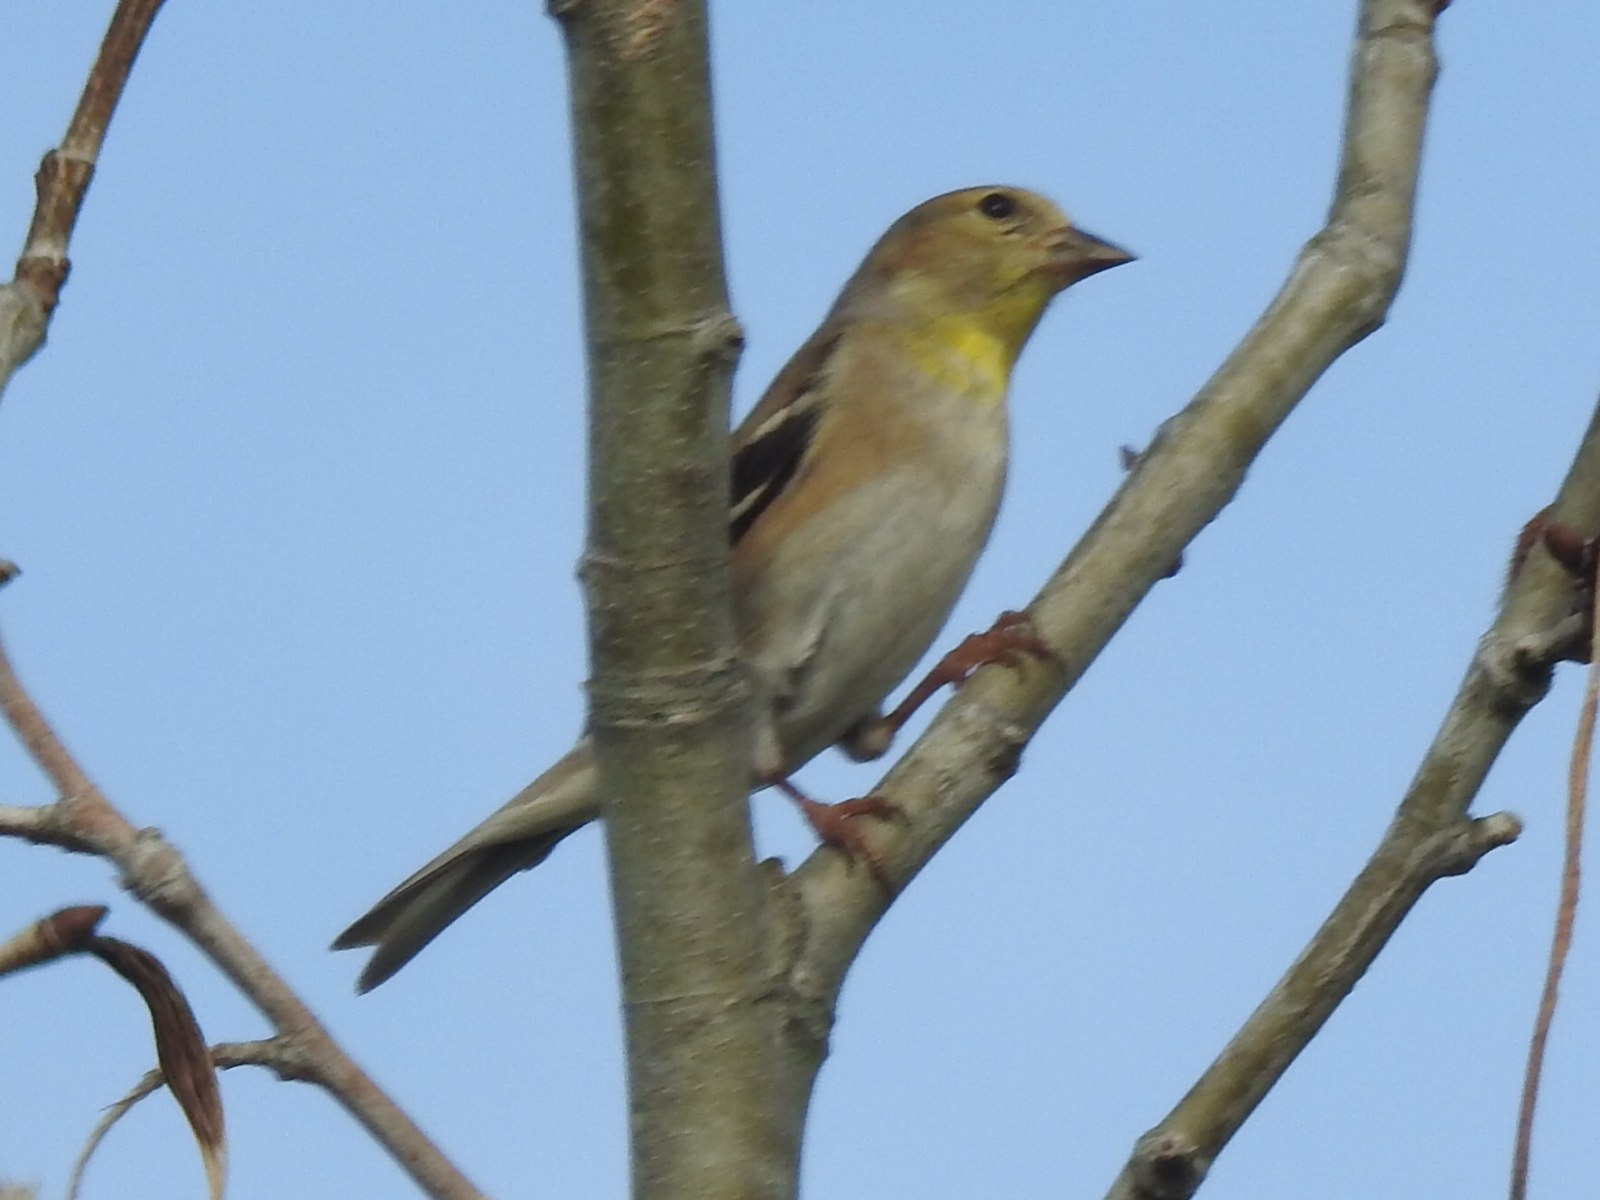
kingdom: Animalia
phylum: Chordata
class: Aves
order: Passeriformes
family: Fringillidae
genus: Spinus
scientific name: Spinus tristis
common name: American goldfinch
